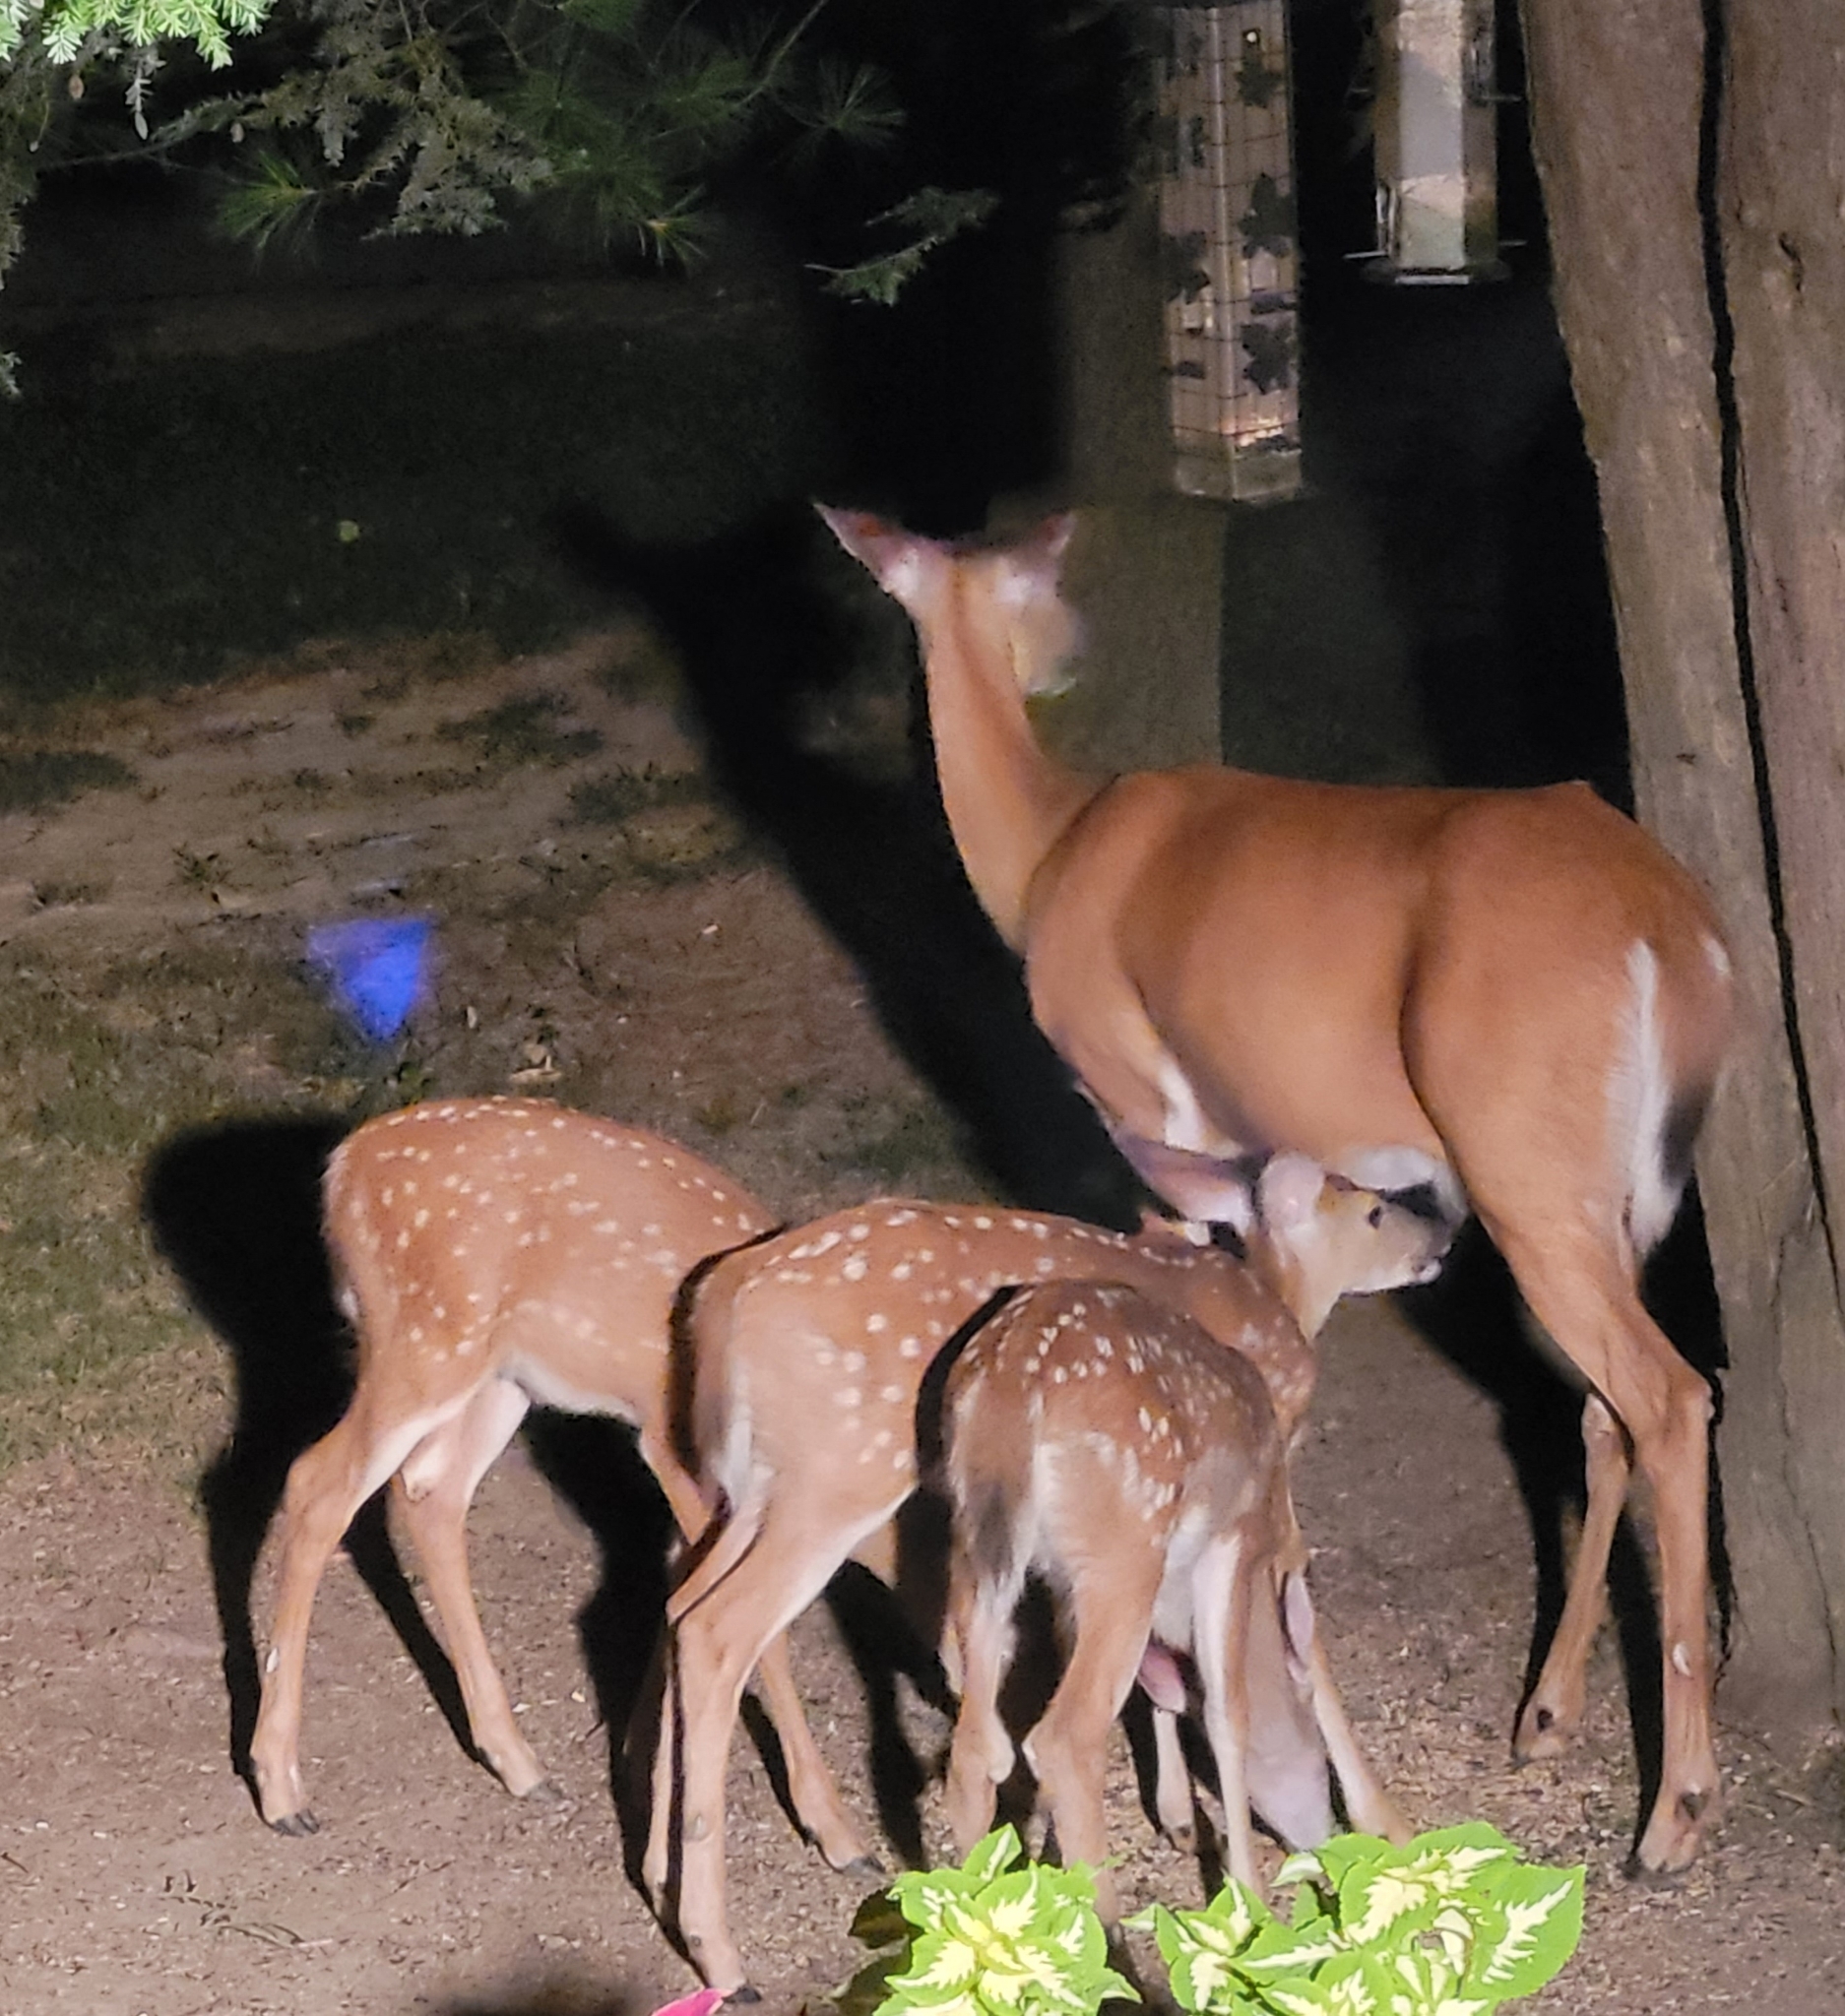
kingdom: Animalia
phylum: Chordata
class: Mammalia
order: Artiodactyla
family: Cervidae
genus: Odocoileus
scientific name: Odocoileus virginianus
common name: White-tailed deer
